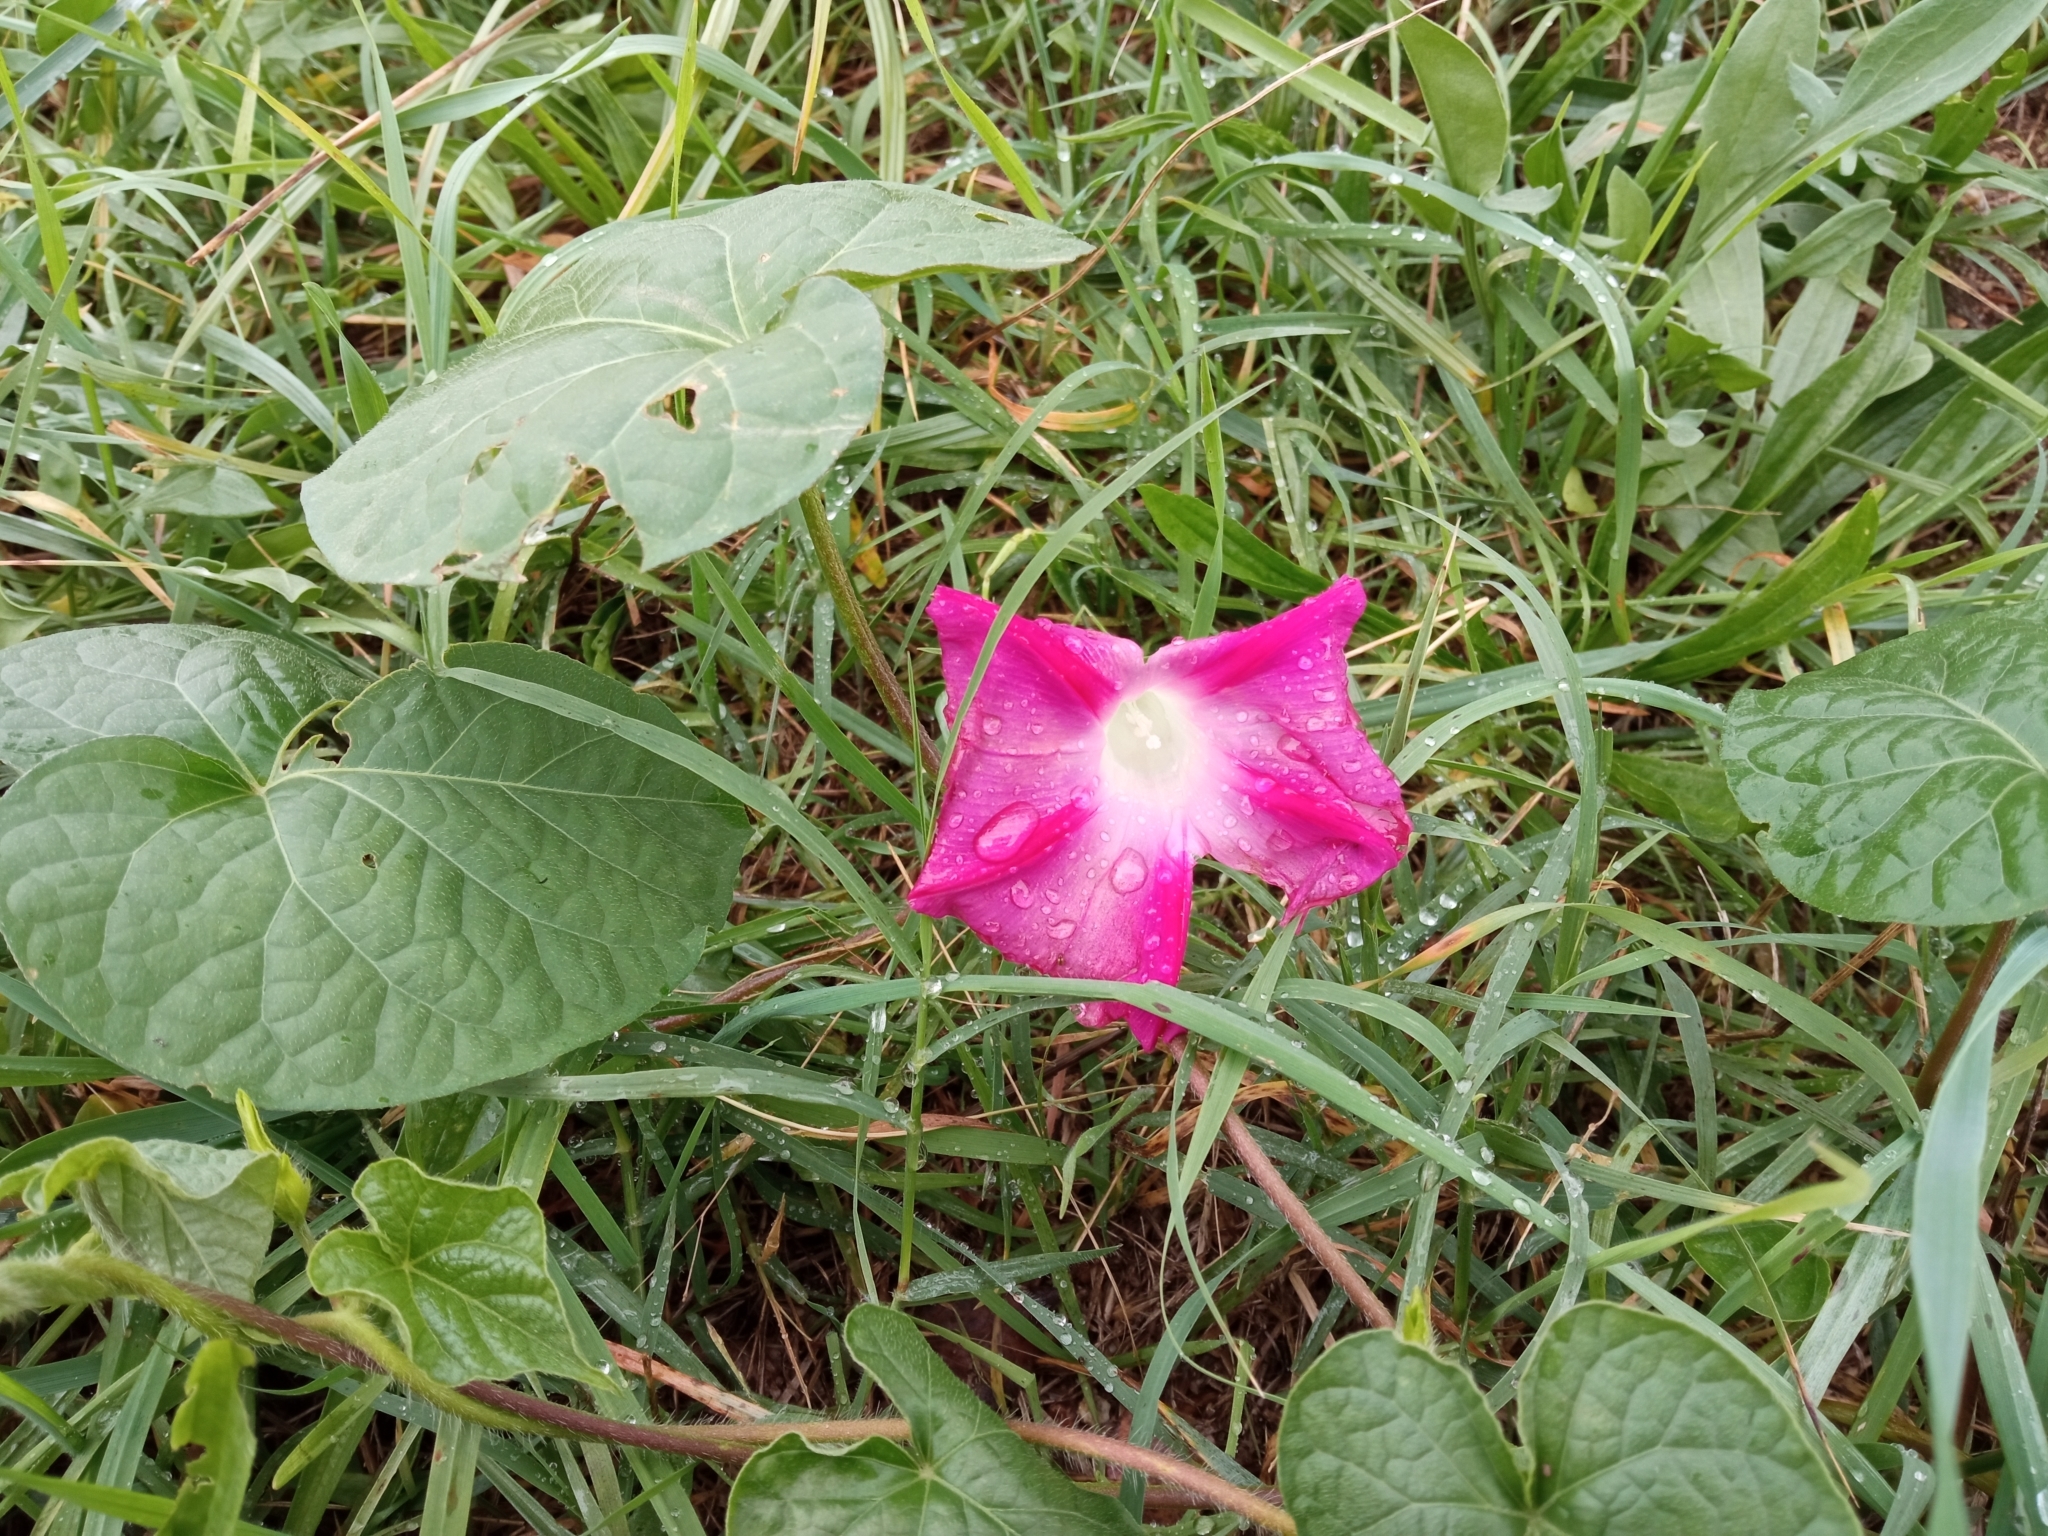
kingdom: Plantae
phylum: Tracheophyta
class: Magnoliopsida
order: Solanales
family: Convolvulaceae
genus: Ipomoea
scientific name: Ipomoea purpurea
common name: Common morning-glory
